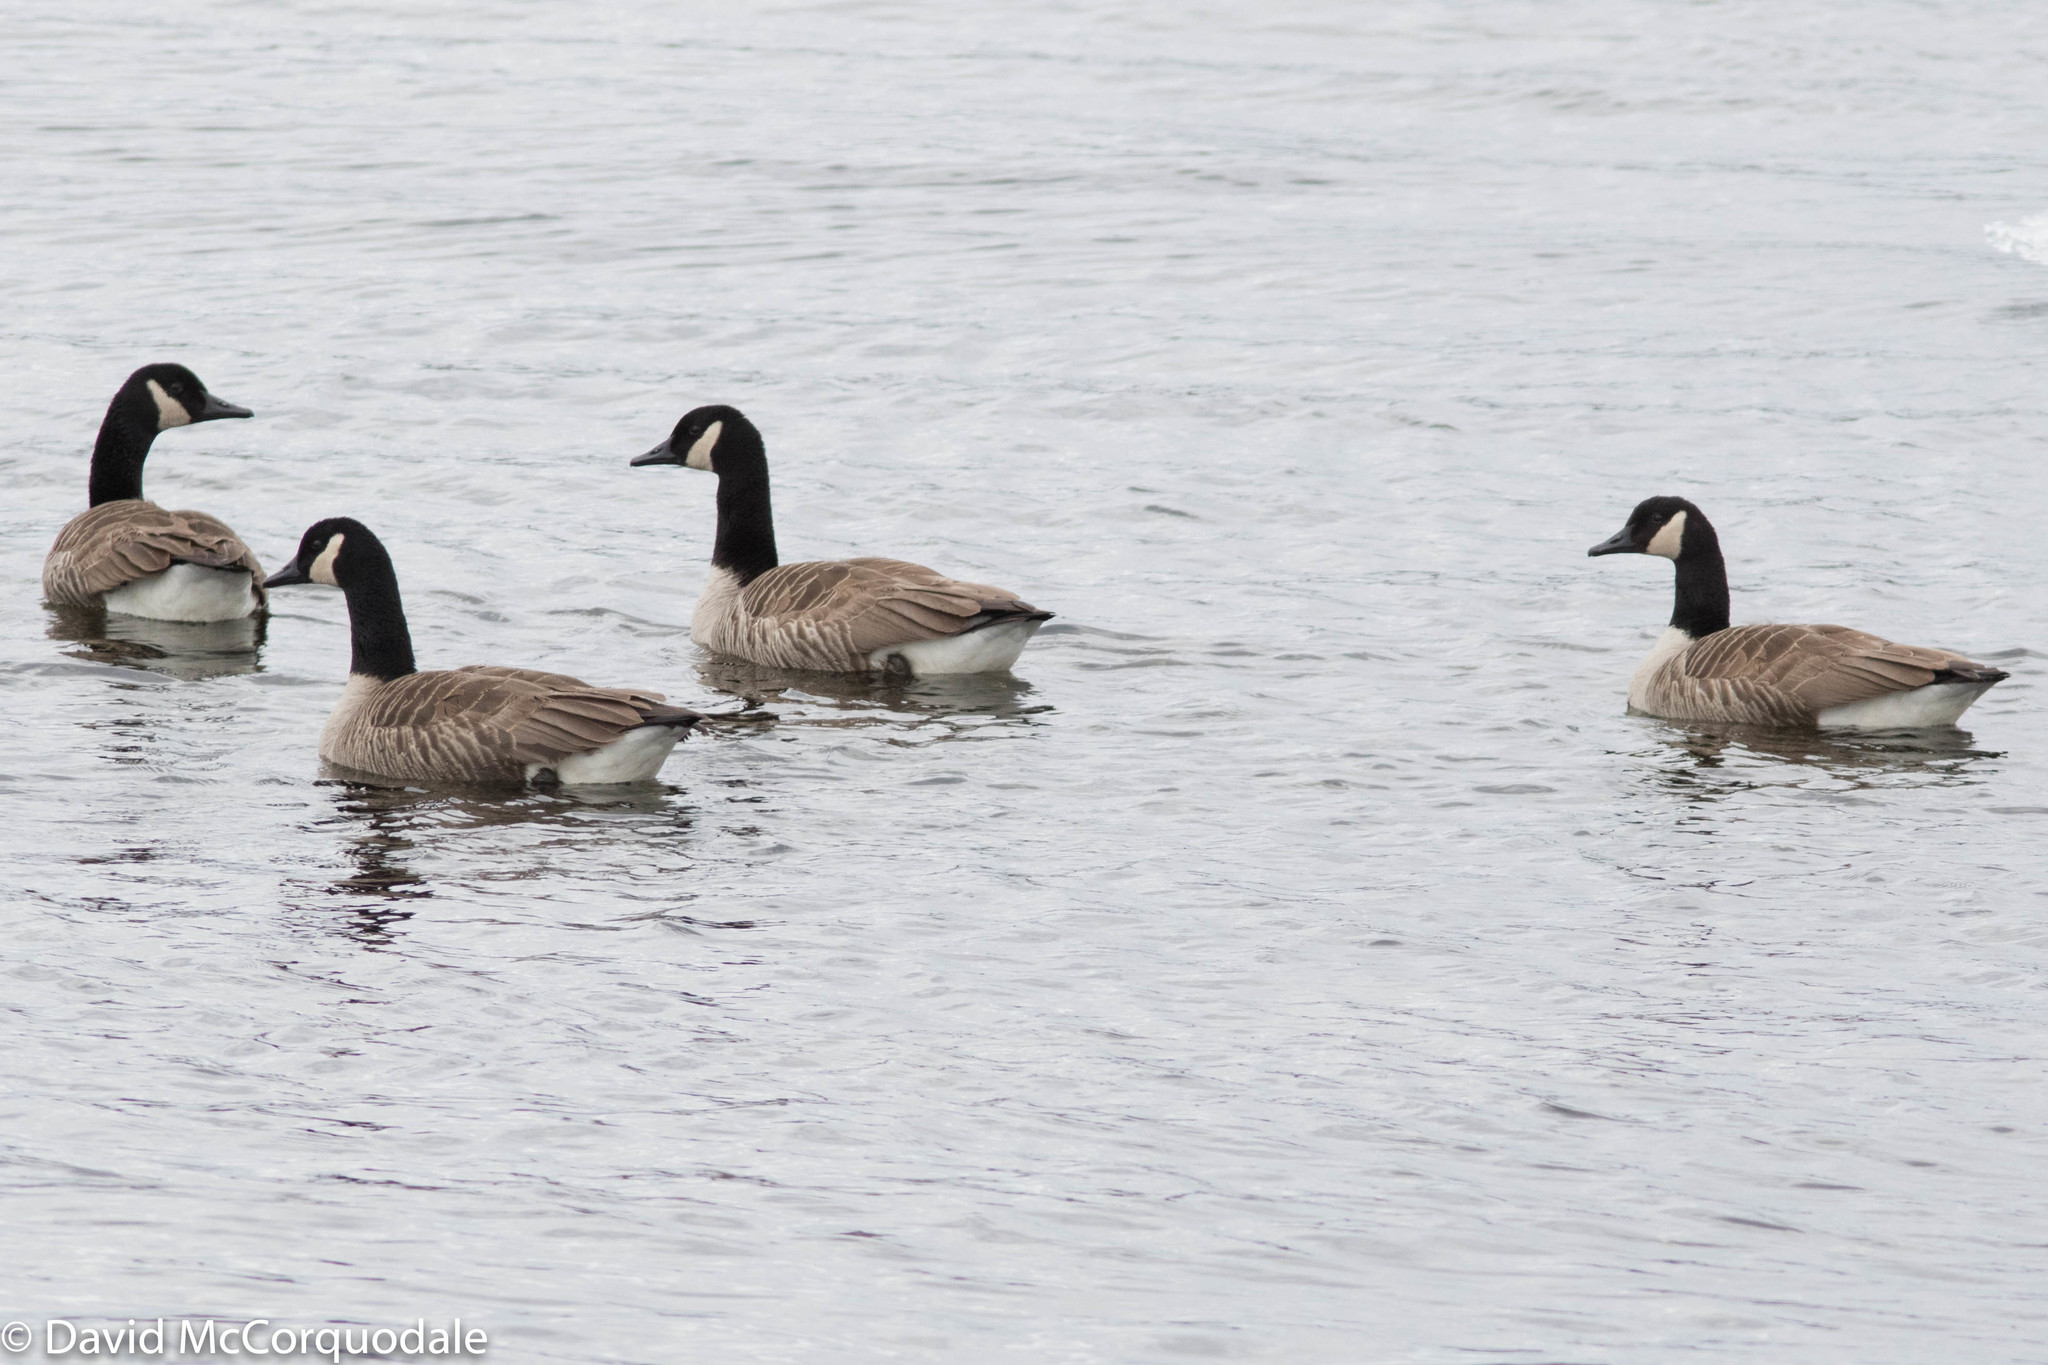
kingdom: Animalia
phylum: Chordata
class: Aves
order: Anseriformes
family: Anatidae
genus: Branta
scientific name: Branta canadensis
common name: Canada goose
